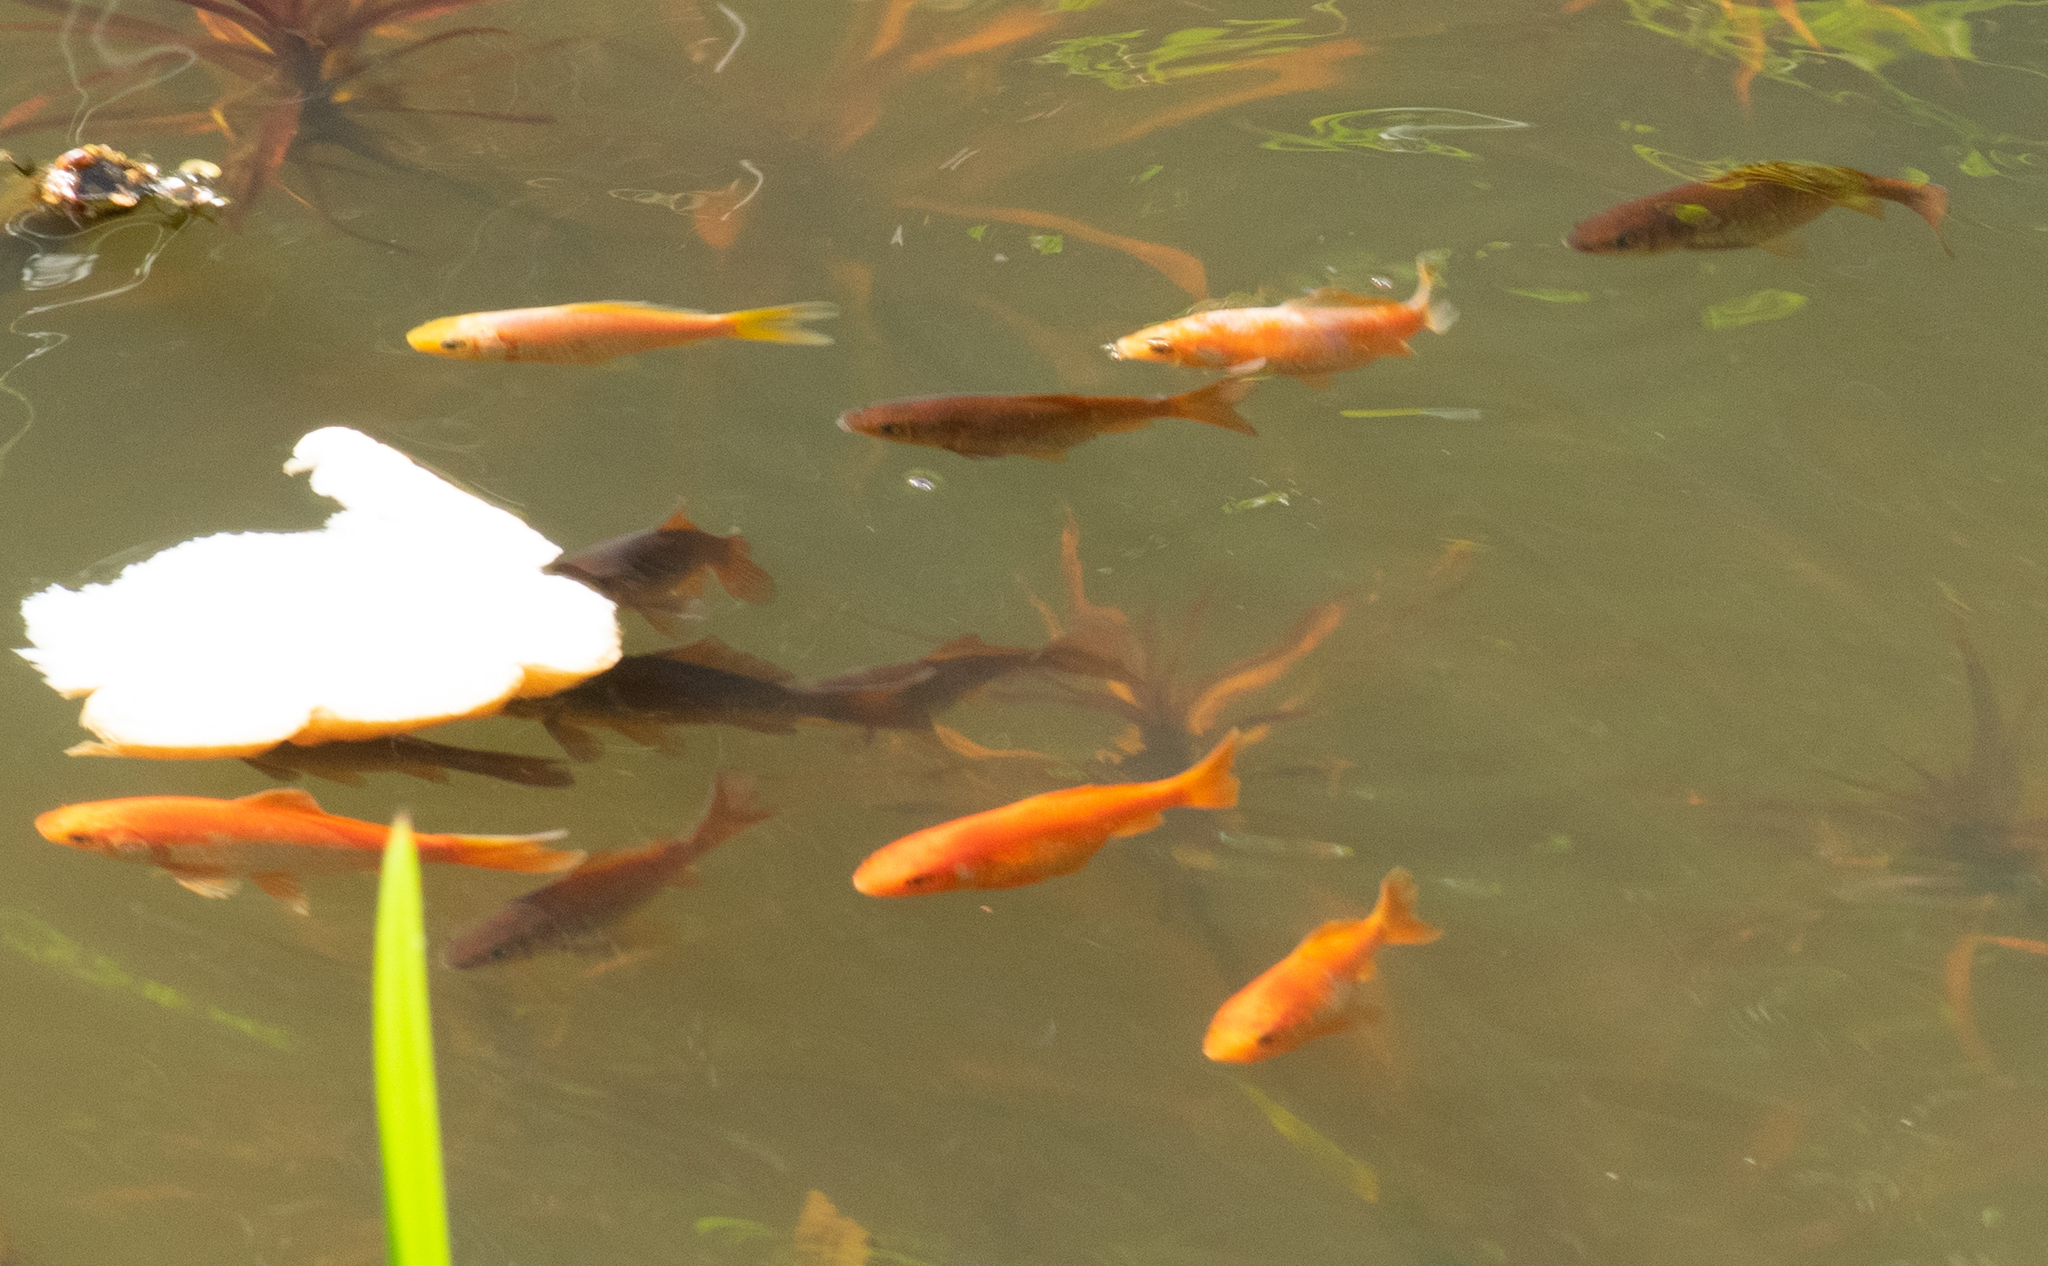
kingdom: Animalia
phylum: Chordata
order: Cypriniformes
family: Cyprinidae
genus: Carassius
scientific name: Carassius auratus
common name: Goldfish
